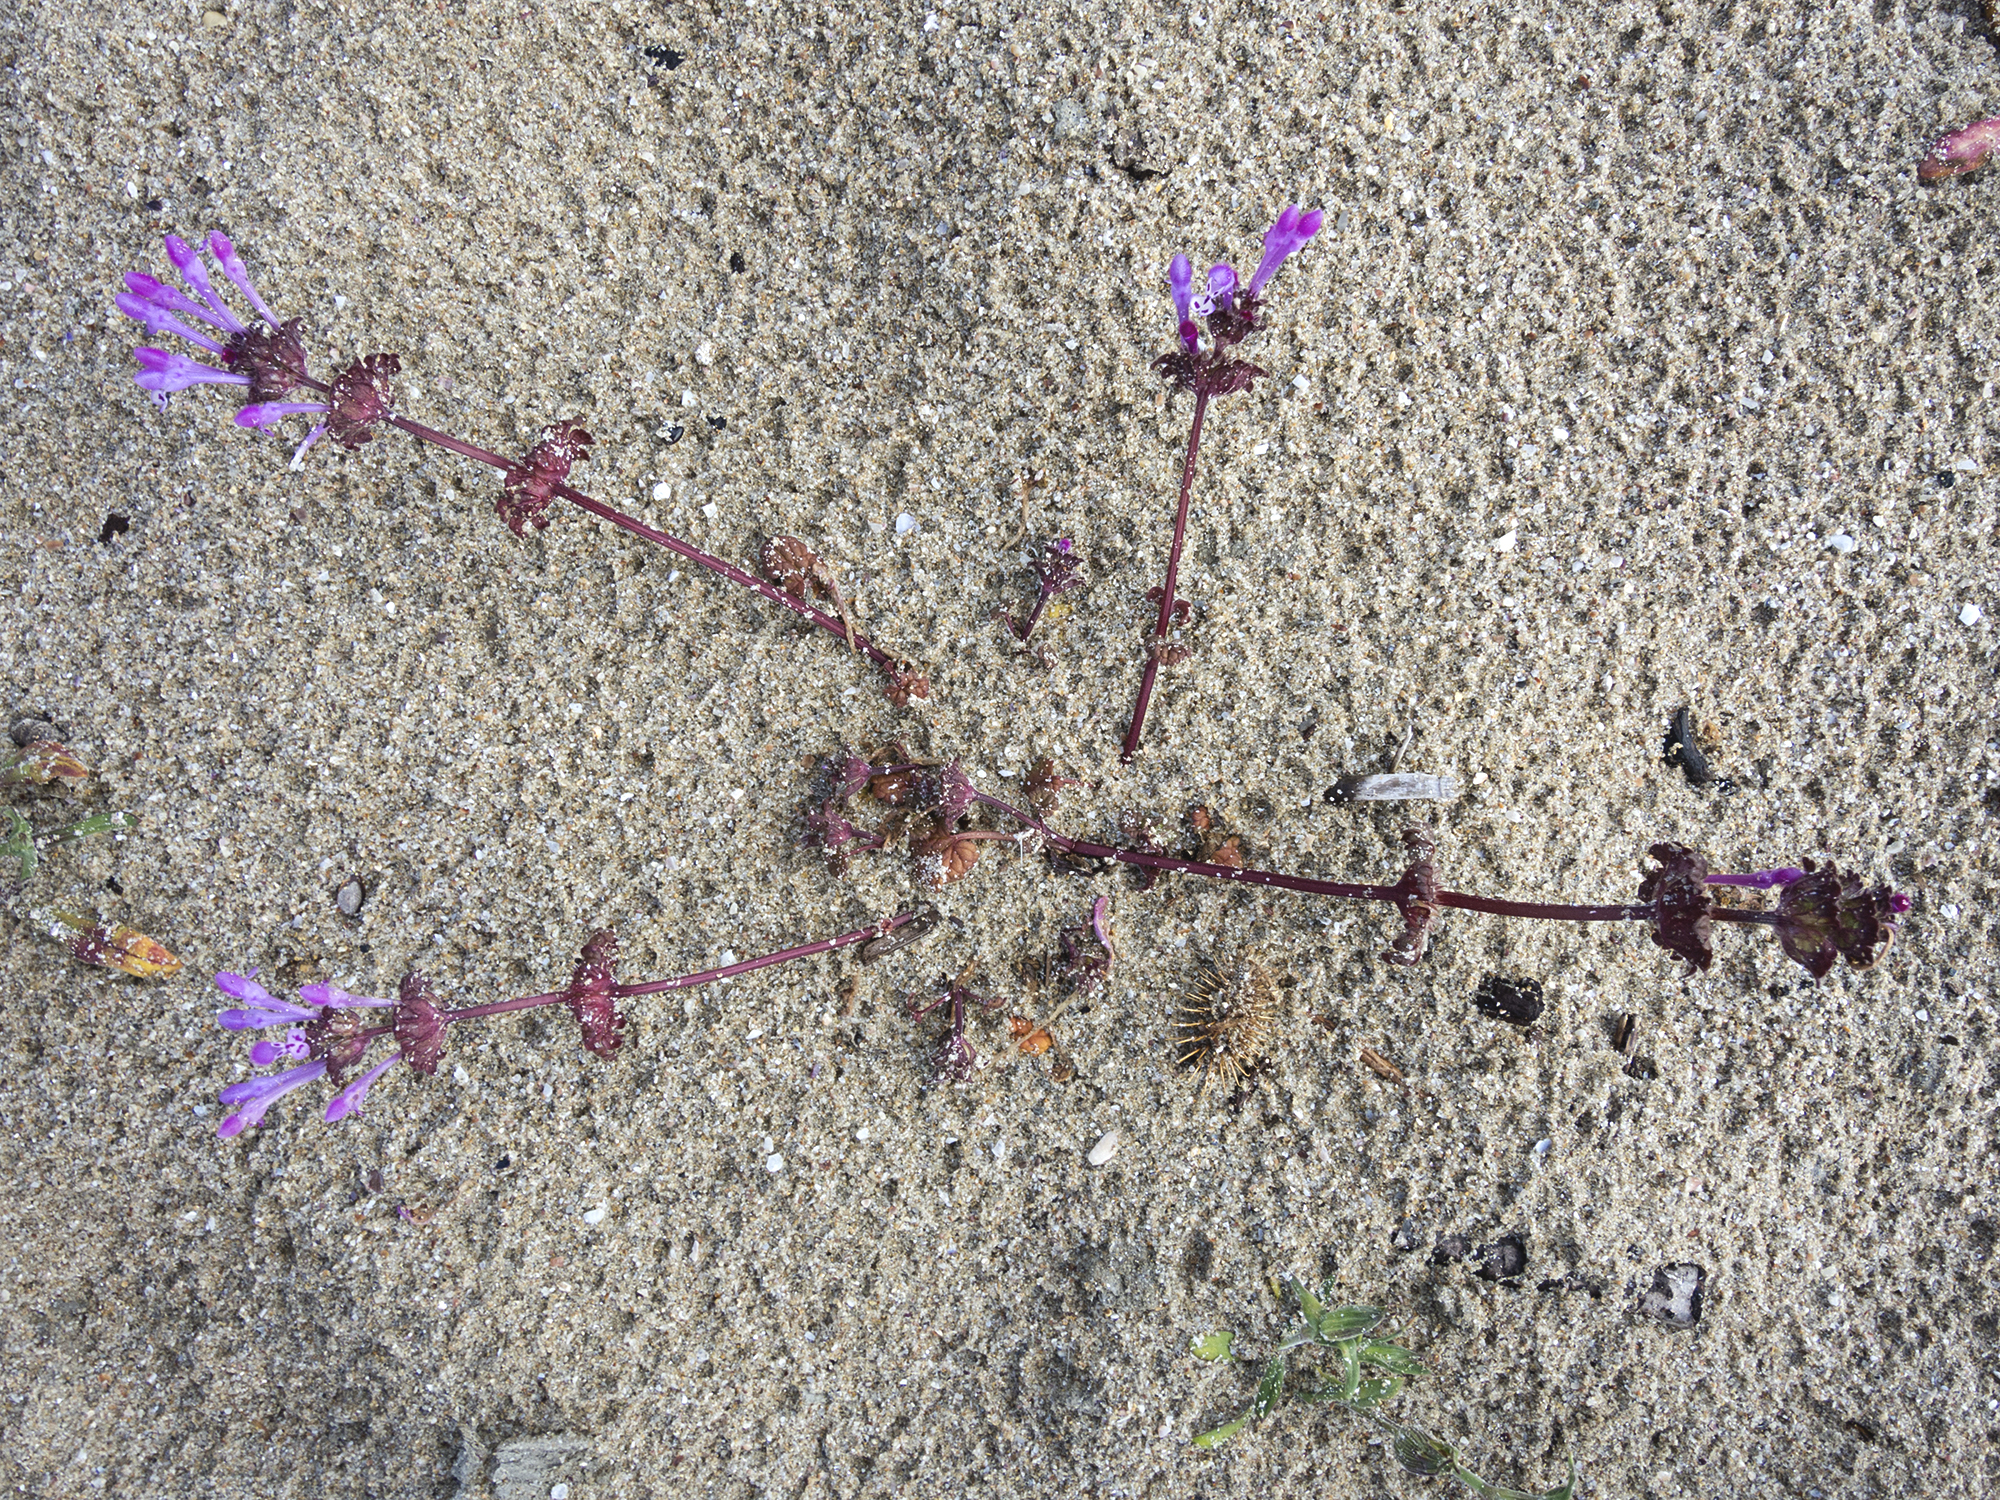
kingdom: Plantae
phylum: Tracheophyta
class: Magnoliopsida
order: Lamiales
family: Lamiaceae
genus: Lamium
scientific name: Lamium amplexicaule
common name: Henbit dead-nettle
